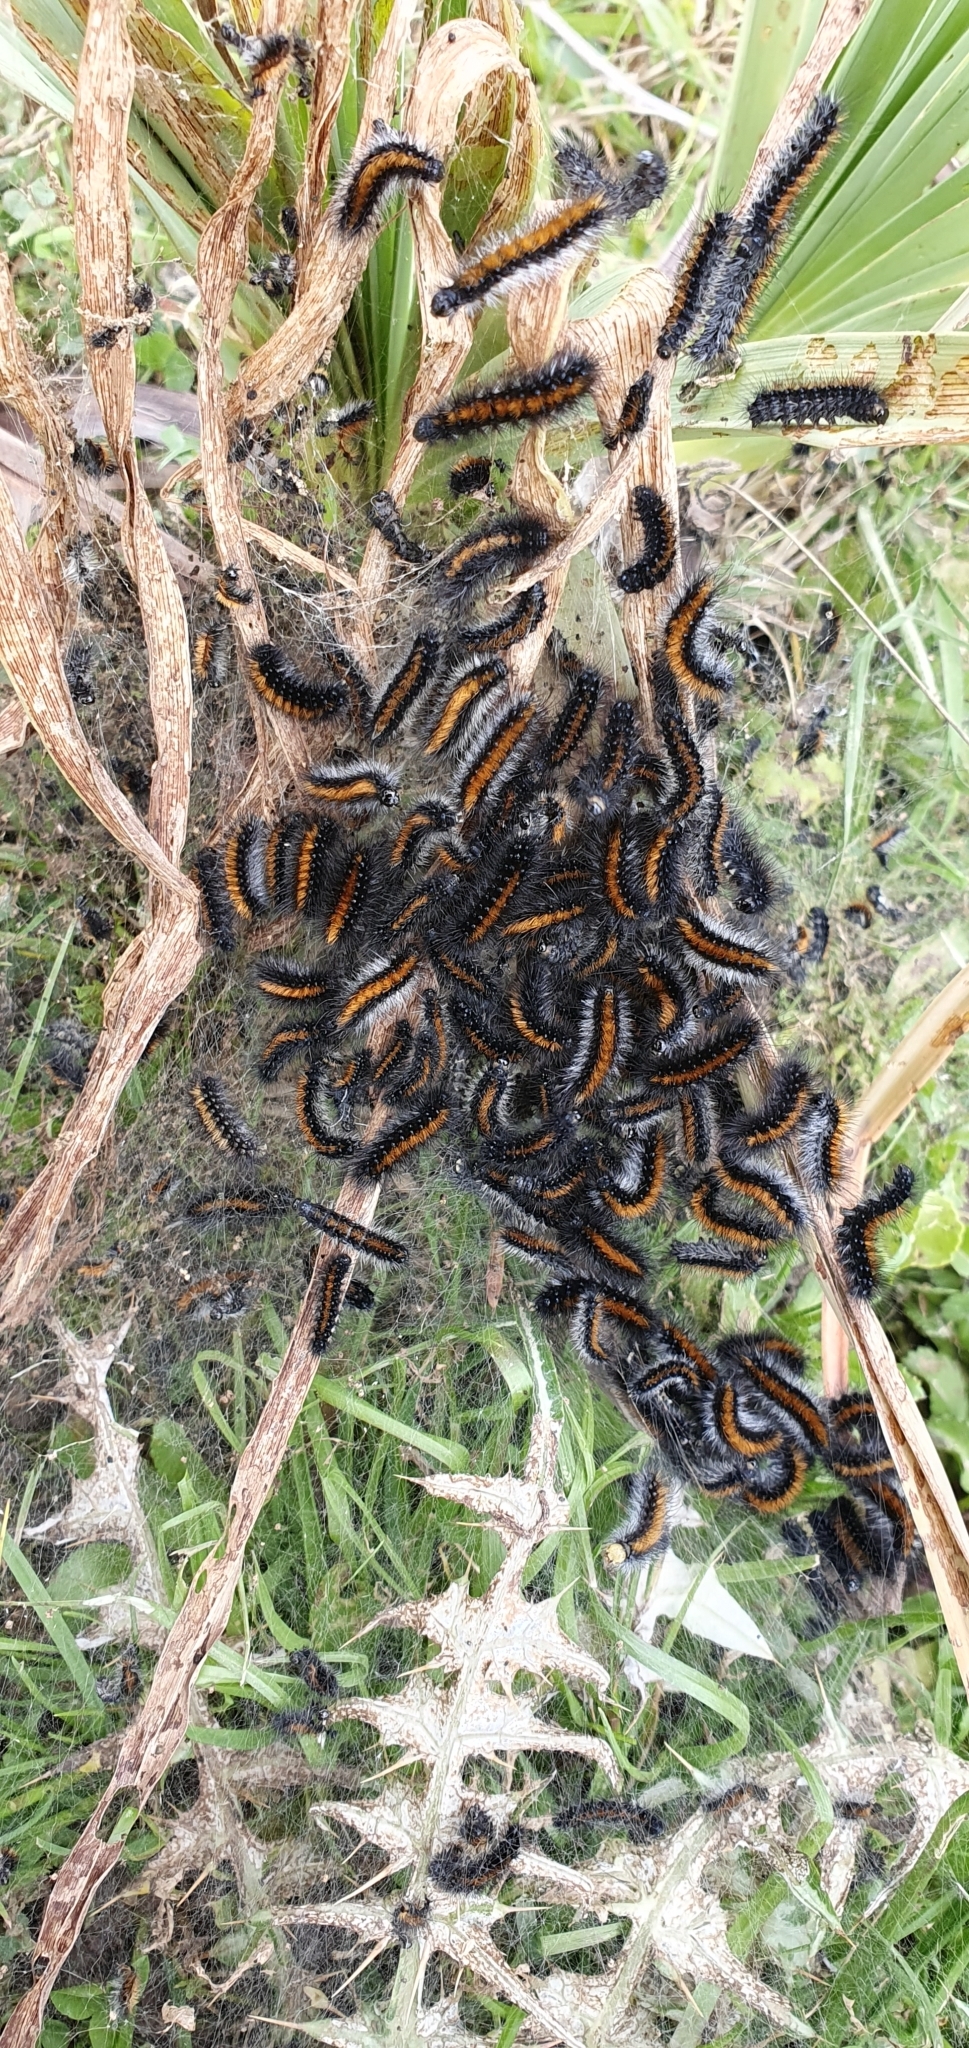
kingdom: Animalia
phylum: Arthropoda
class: Insecta
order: Lepidoptera
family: Erebidae
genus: Ocnogyna
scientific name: Ocnogyna boeticum
